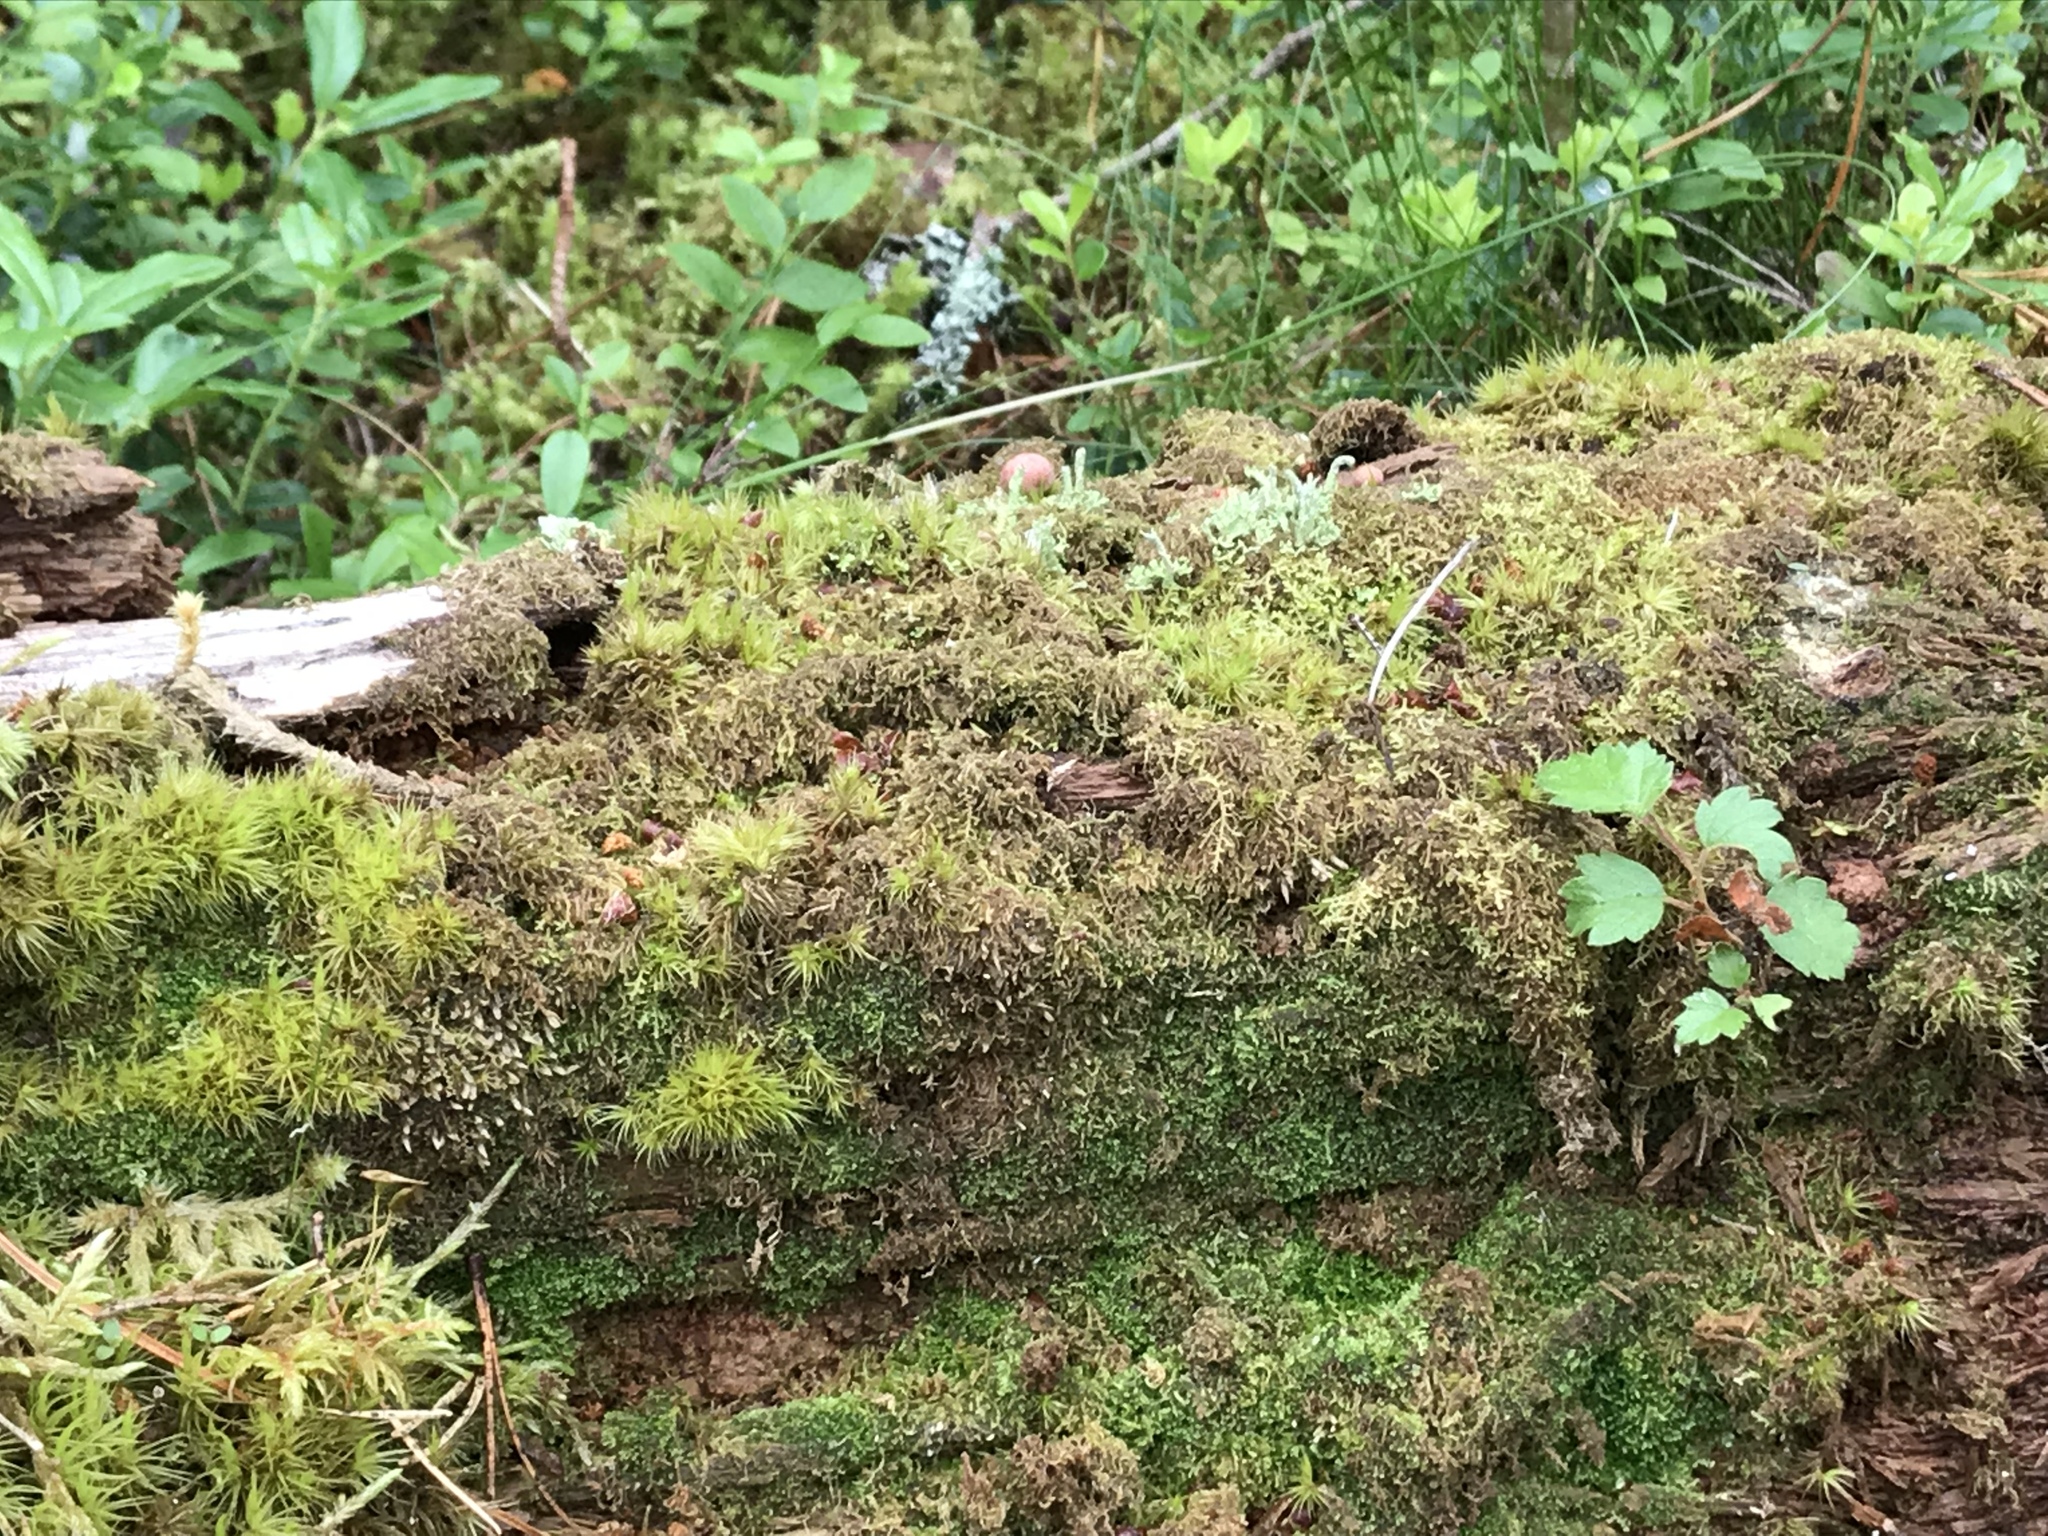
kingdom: Protozoa
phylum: Mycetozoa
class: Myxomycetes
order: Cribrariales
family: Tubiferaceae
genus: Lycogala
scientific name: Lycogala epidendrum
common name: Wolf's milk
